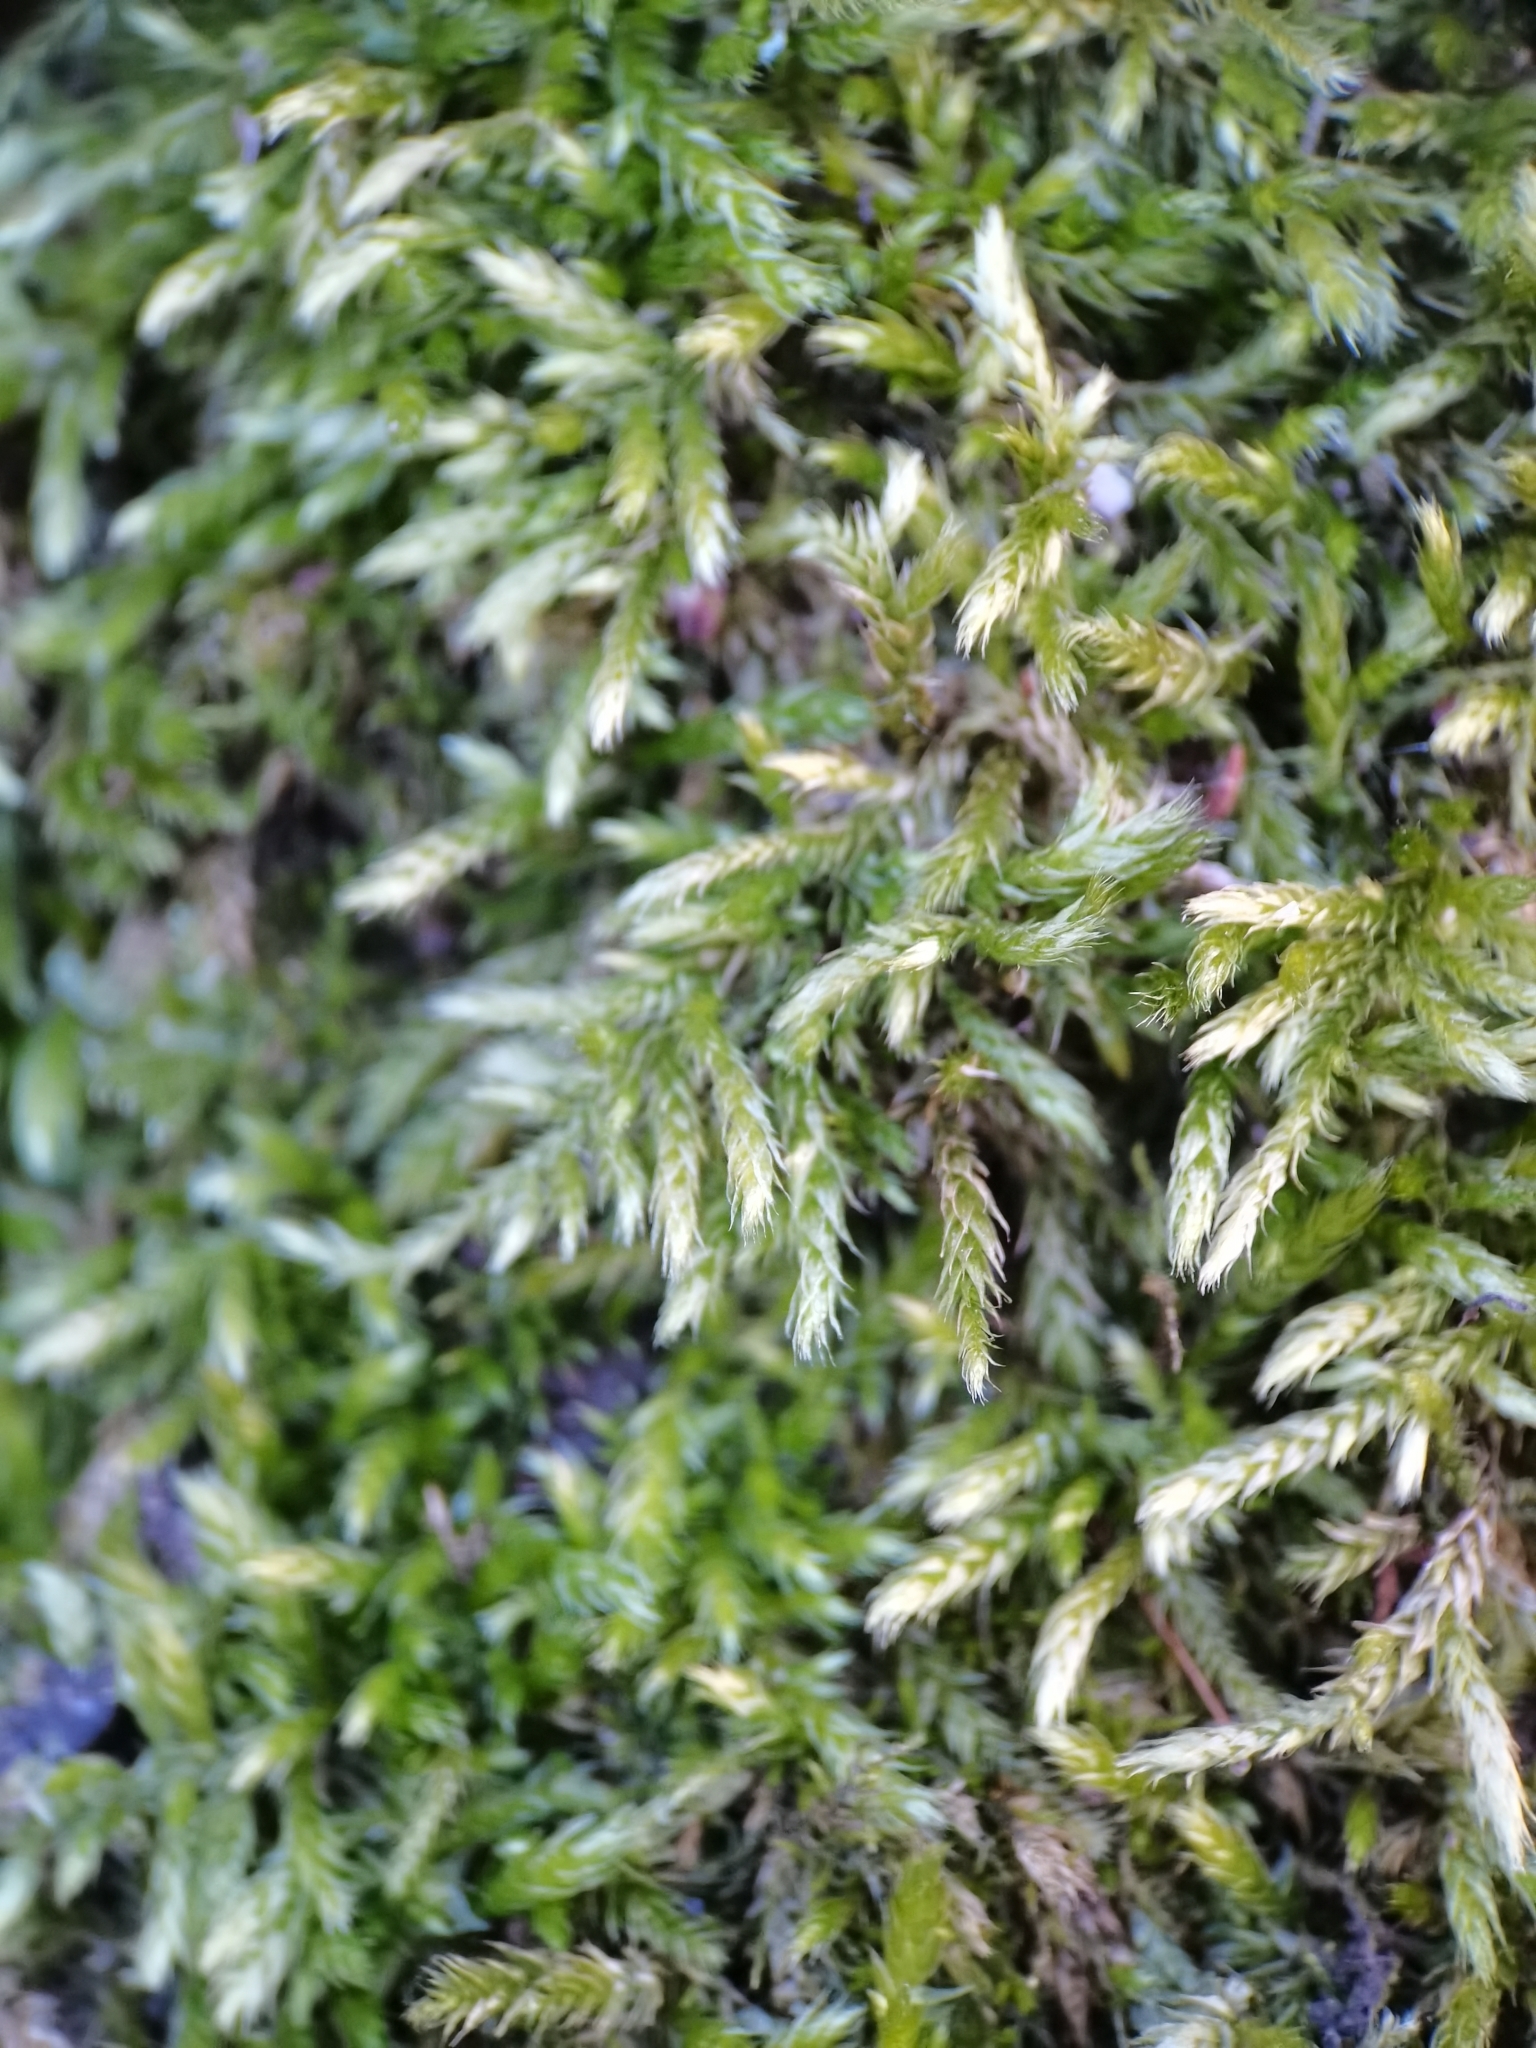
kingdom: Plantae
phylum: Bryophyta
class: Bryopsida
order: Hypnales
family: Brachytheciaceae
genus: Brachythecium
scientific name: Brachythecium salebrosum
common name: Smooth-stalk feather-moss
